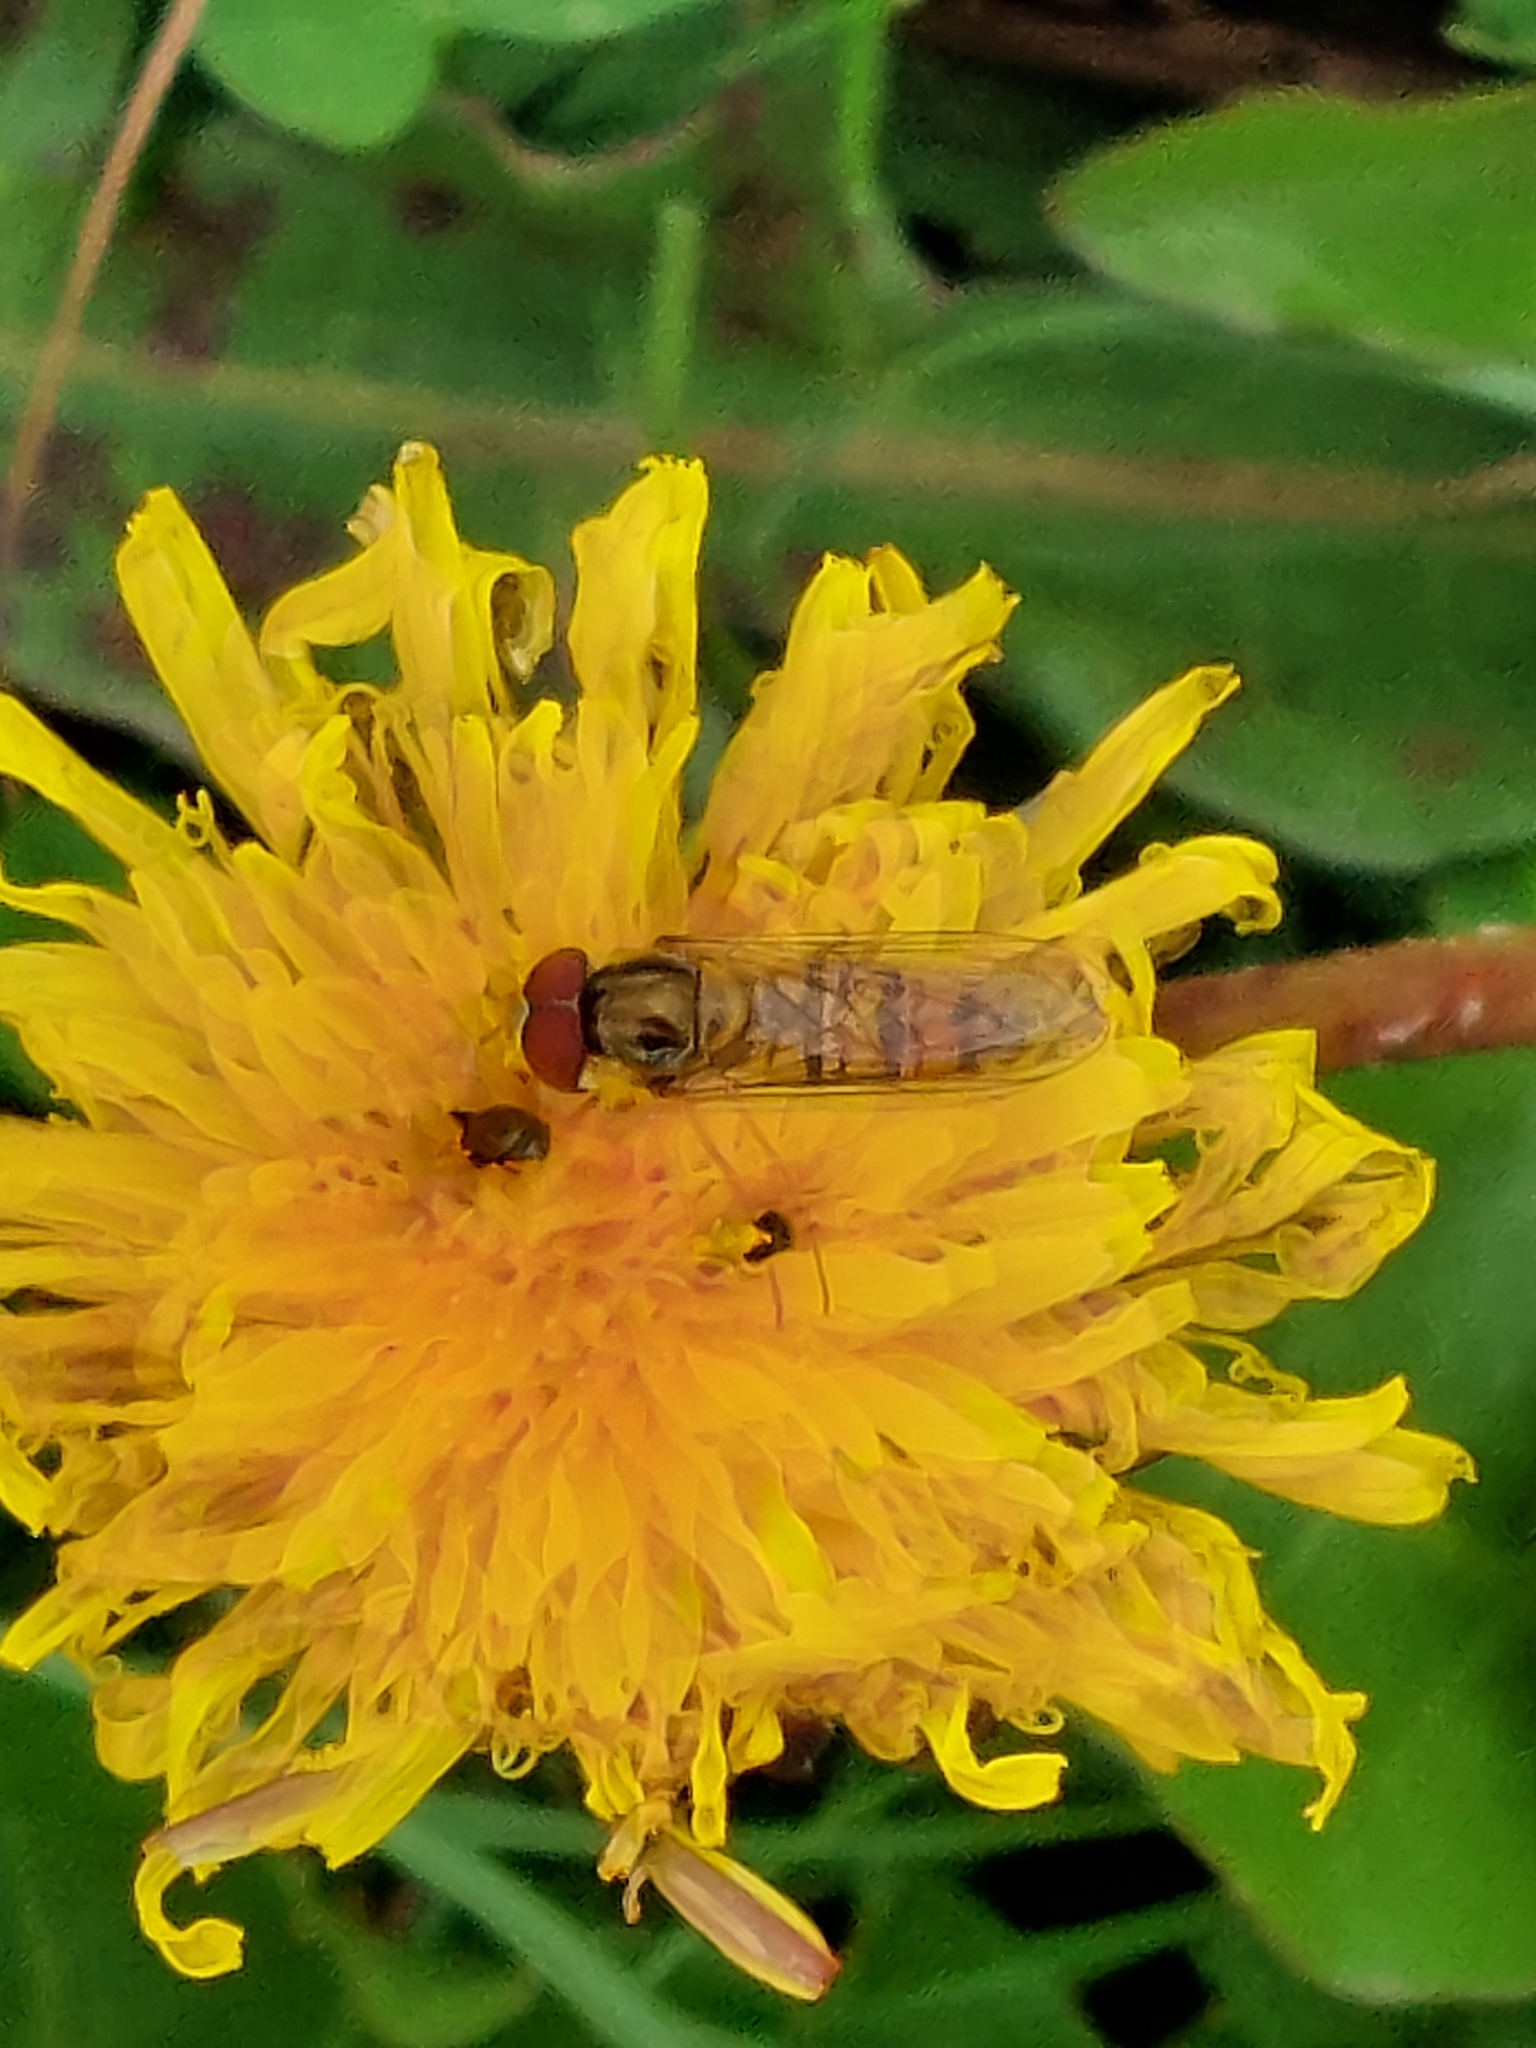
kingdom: Animalia
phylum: Arthropoda
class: Insecta
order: Diptera
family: Syrphidae
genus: Episyrphus
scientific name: Episyrphus balteatus
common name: Marmalade hoverfly
